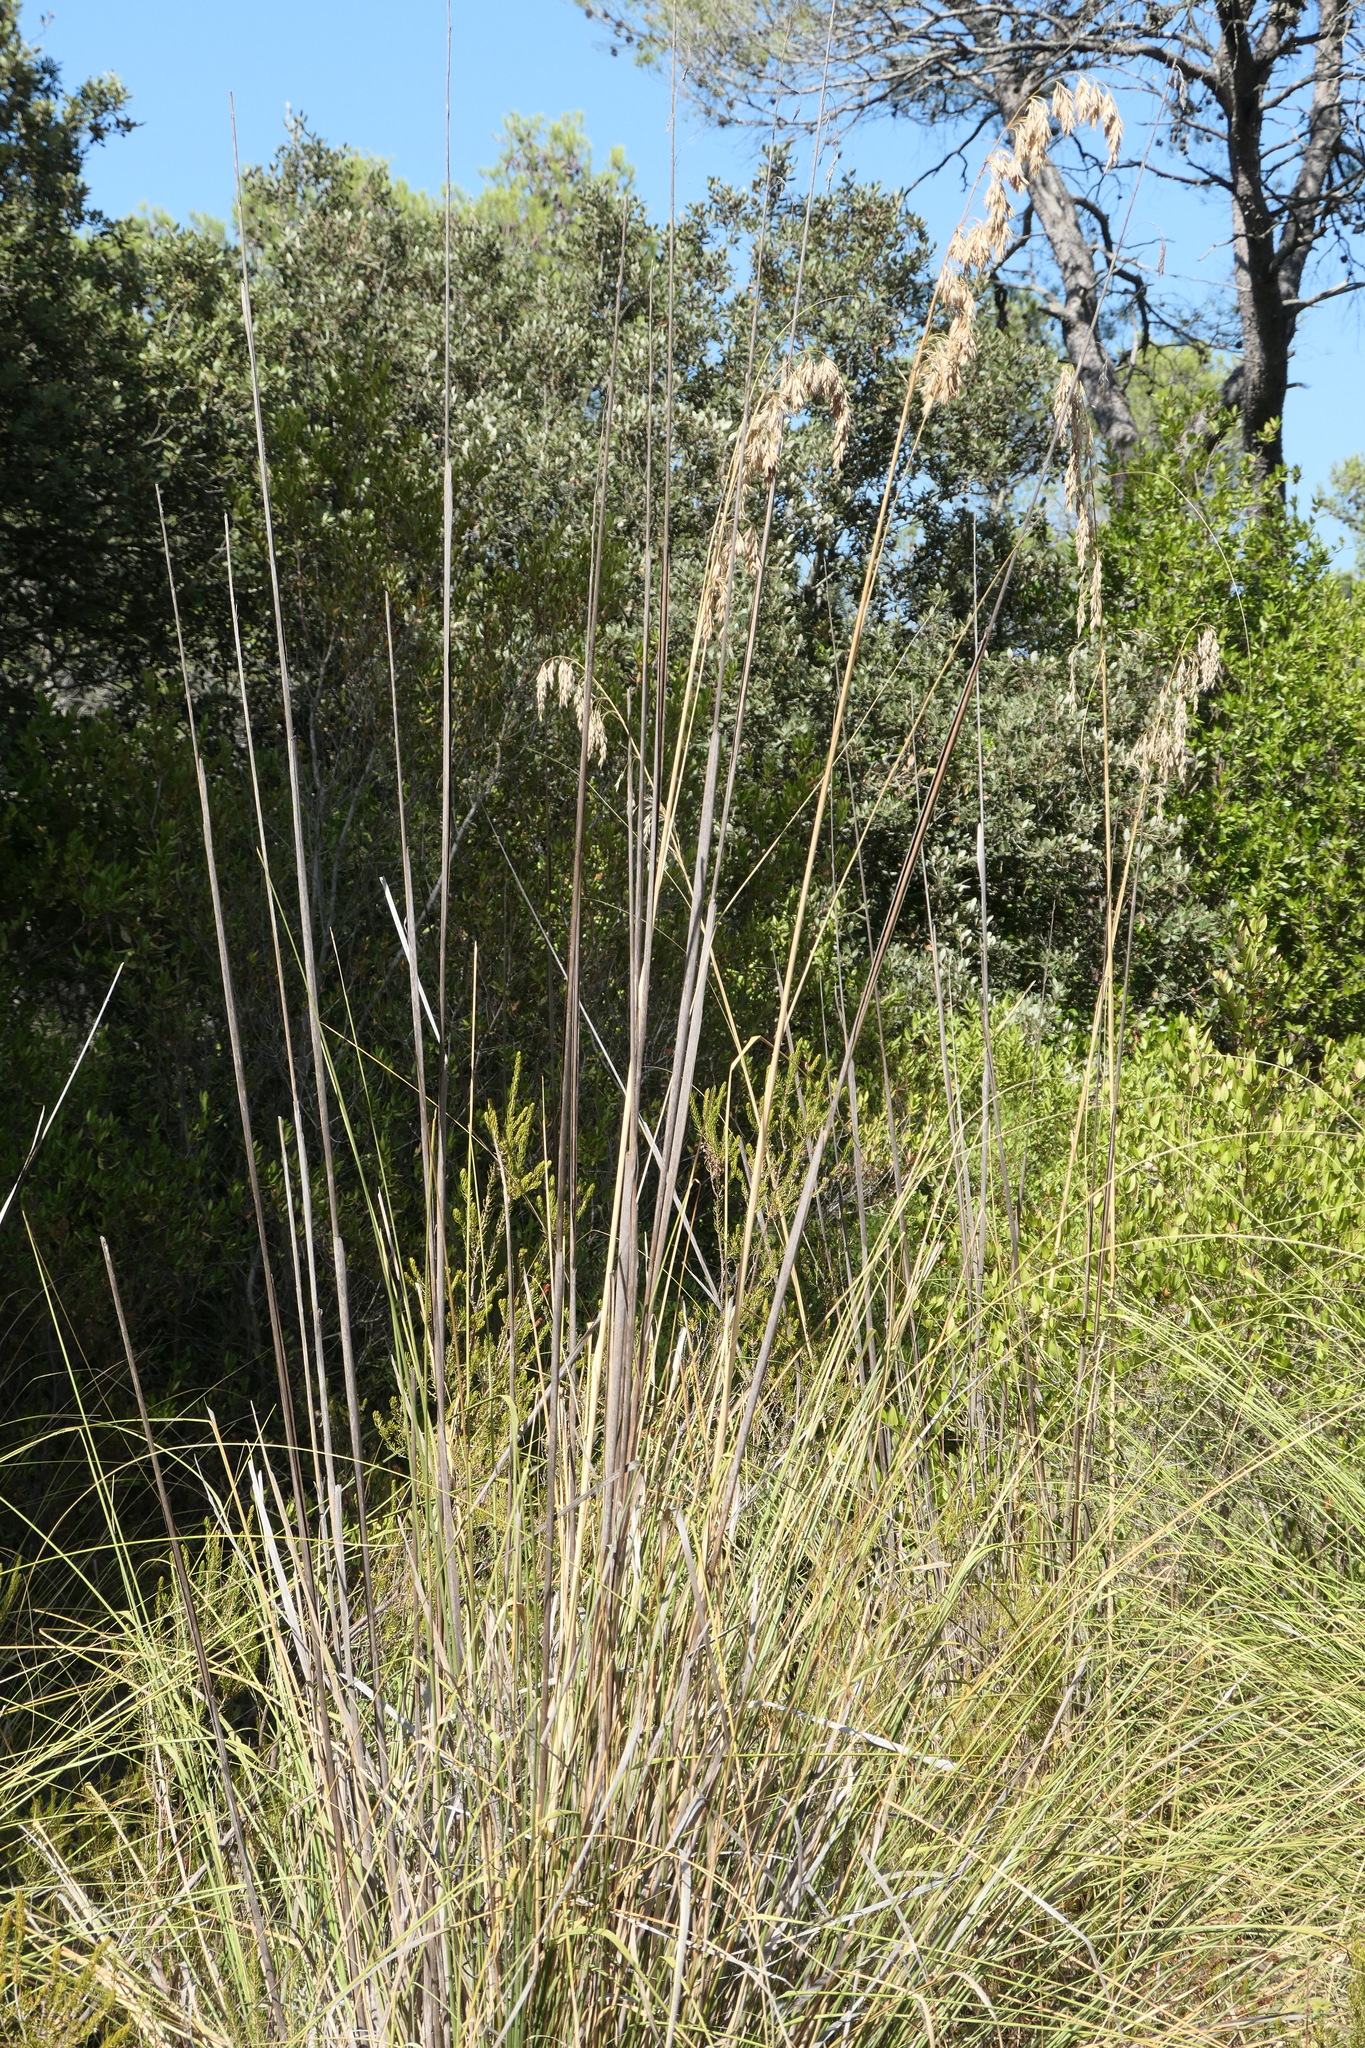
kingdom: Plantae
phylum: Tracheophyta
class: Liliopsida
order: Poales
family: Poaceae
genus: Ampelodesmos
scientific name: Ampelodesmos mauritanicus
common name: Mauritanian grass
